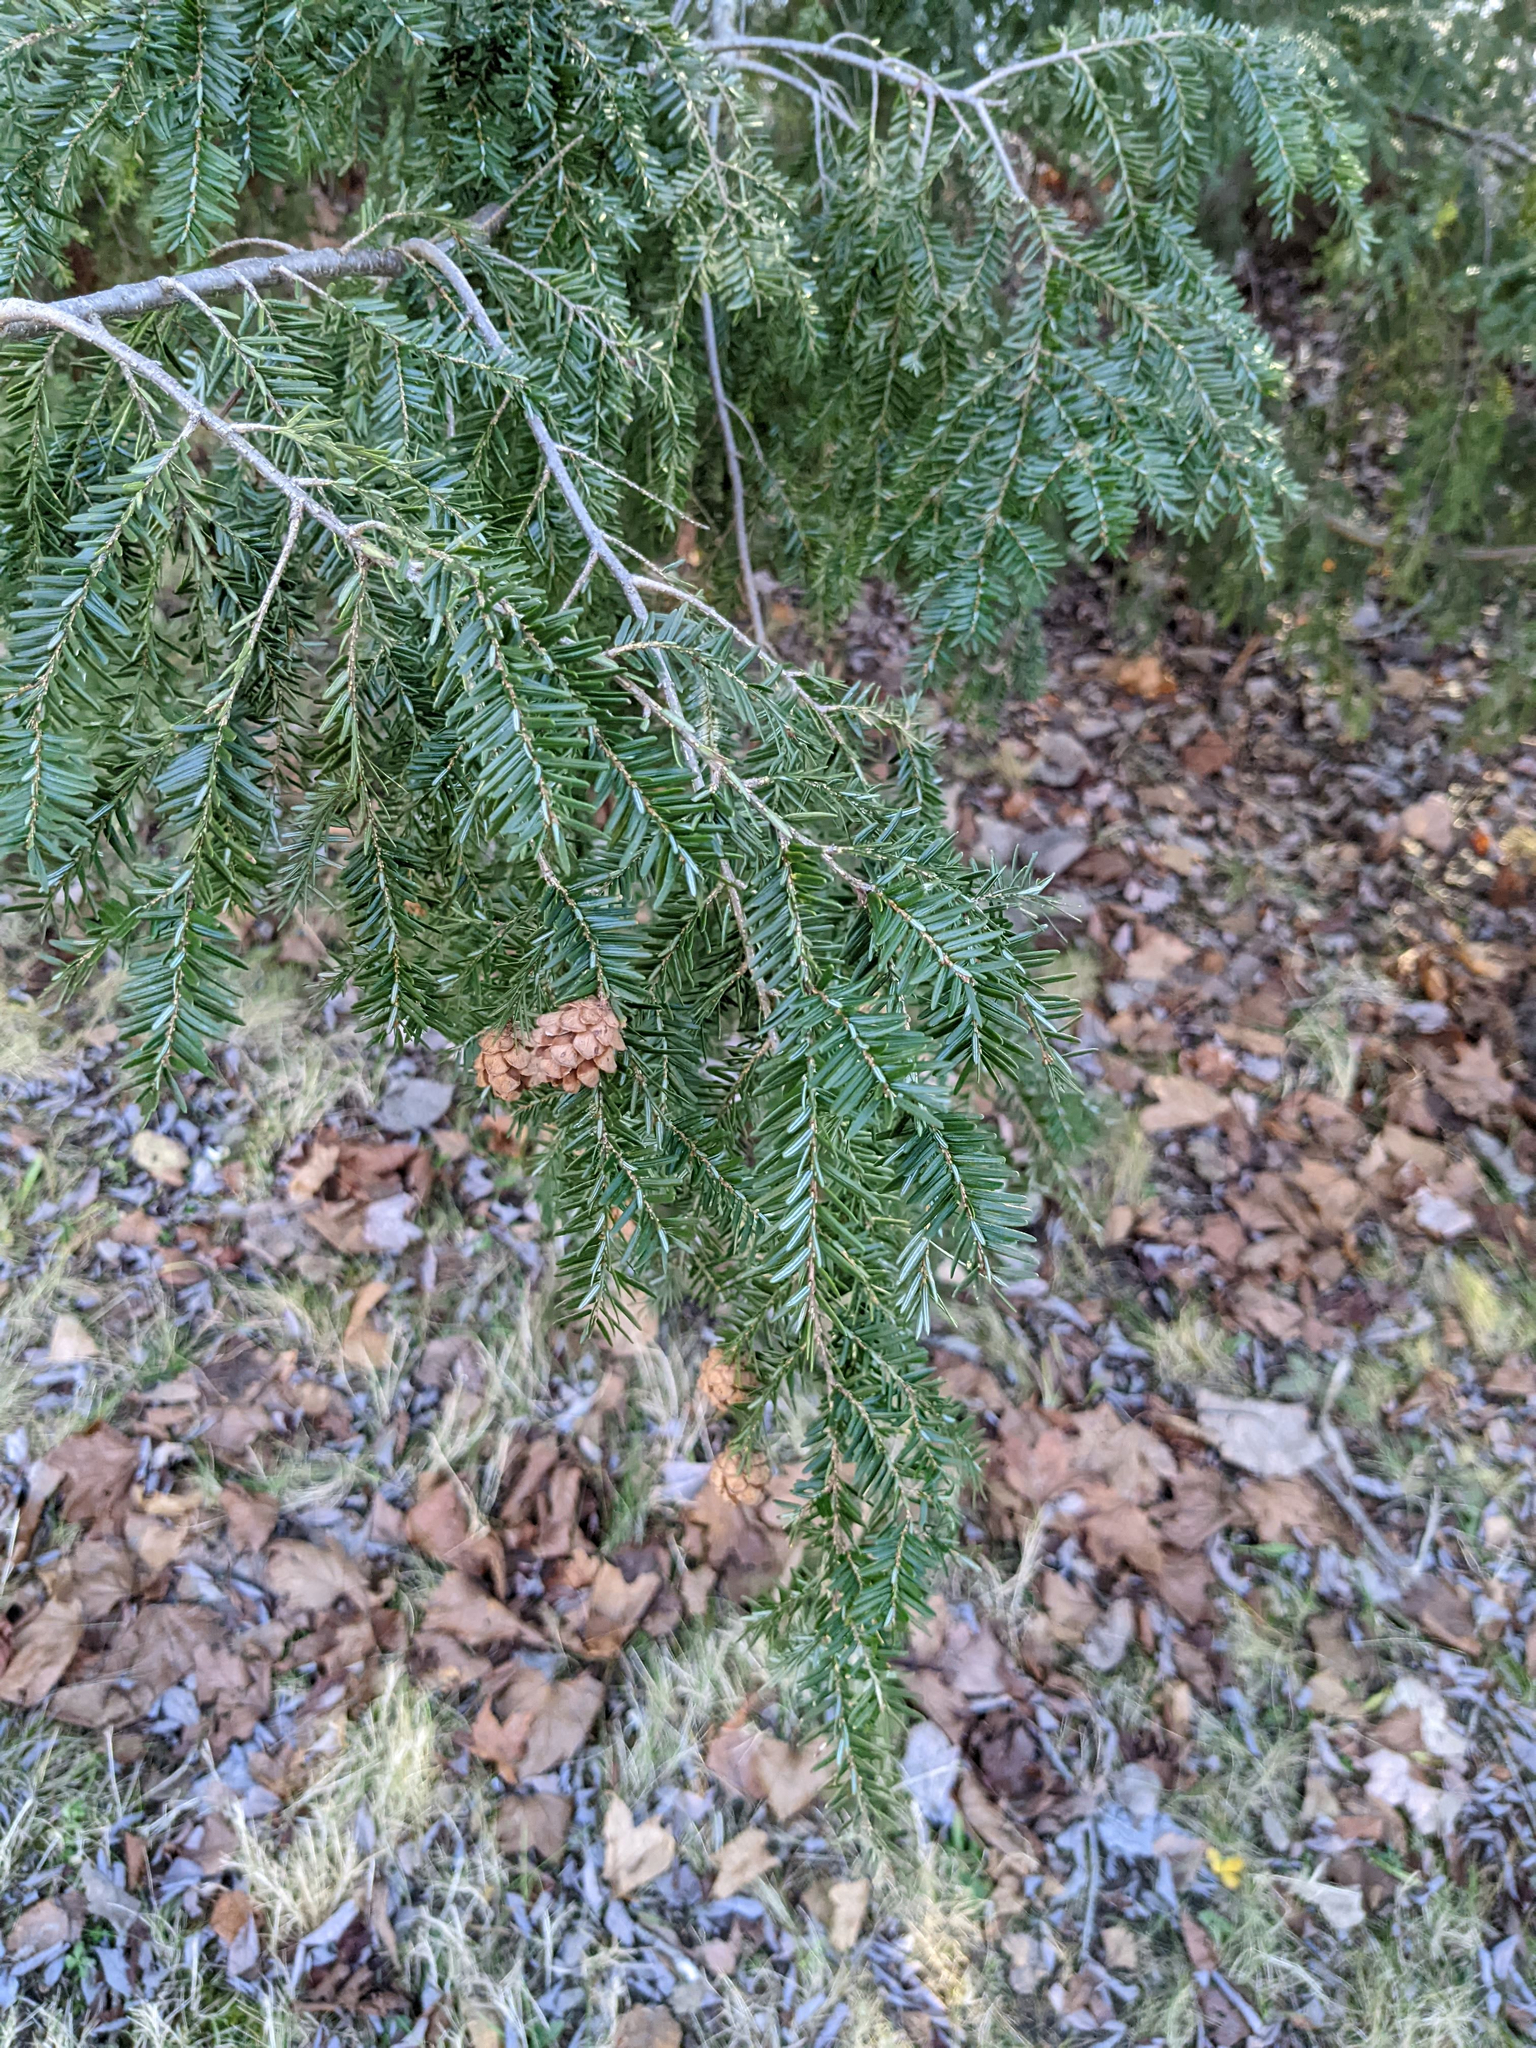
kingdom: Plantae
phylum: Tracheophyta
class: Pinopsida
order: Pinales
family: Pinaceae
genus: Tsuga
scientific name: Tsuga canadensis
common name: Eastern hemlock
